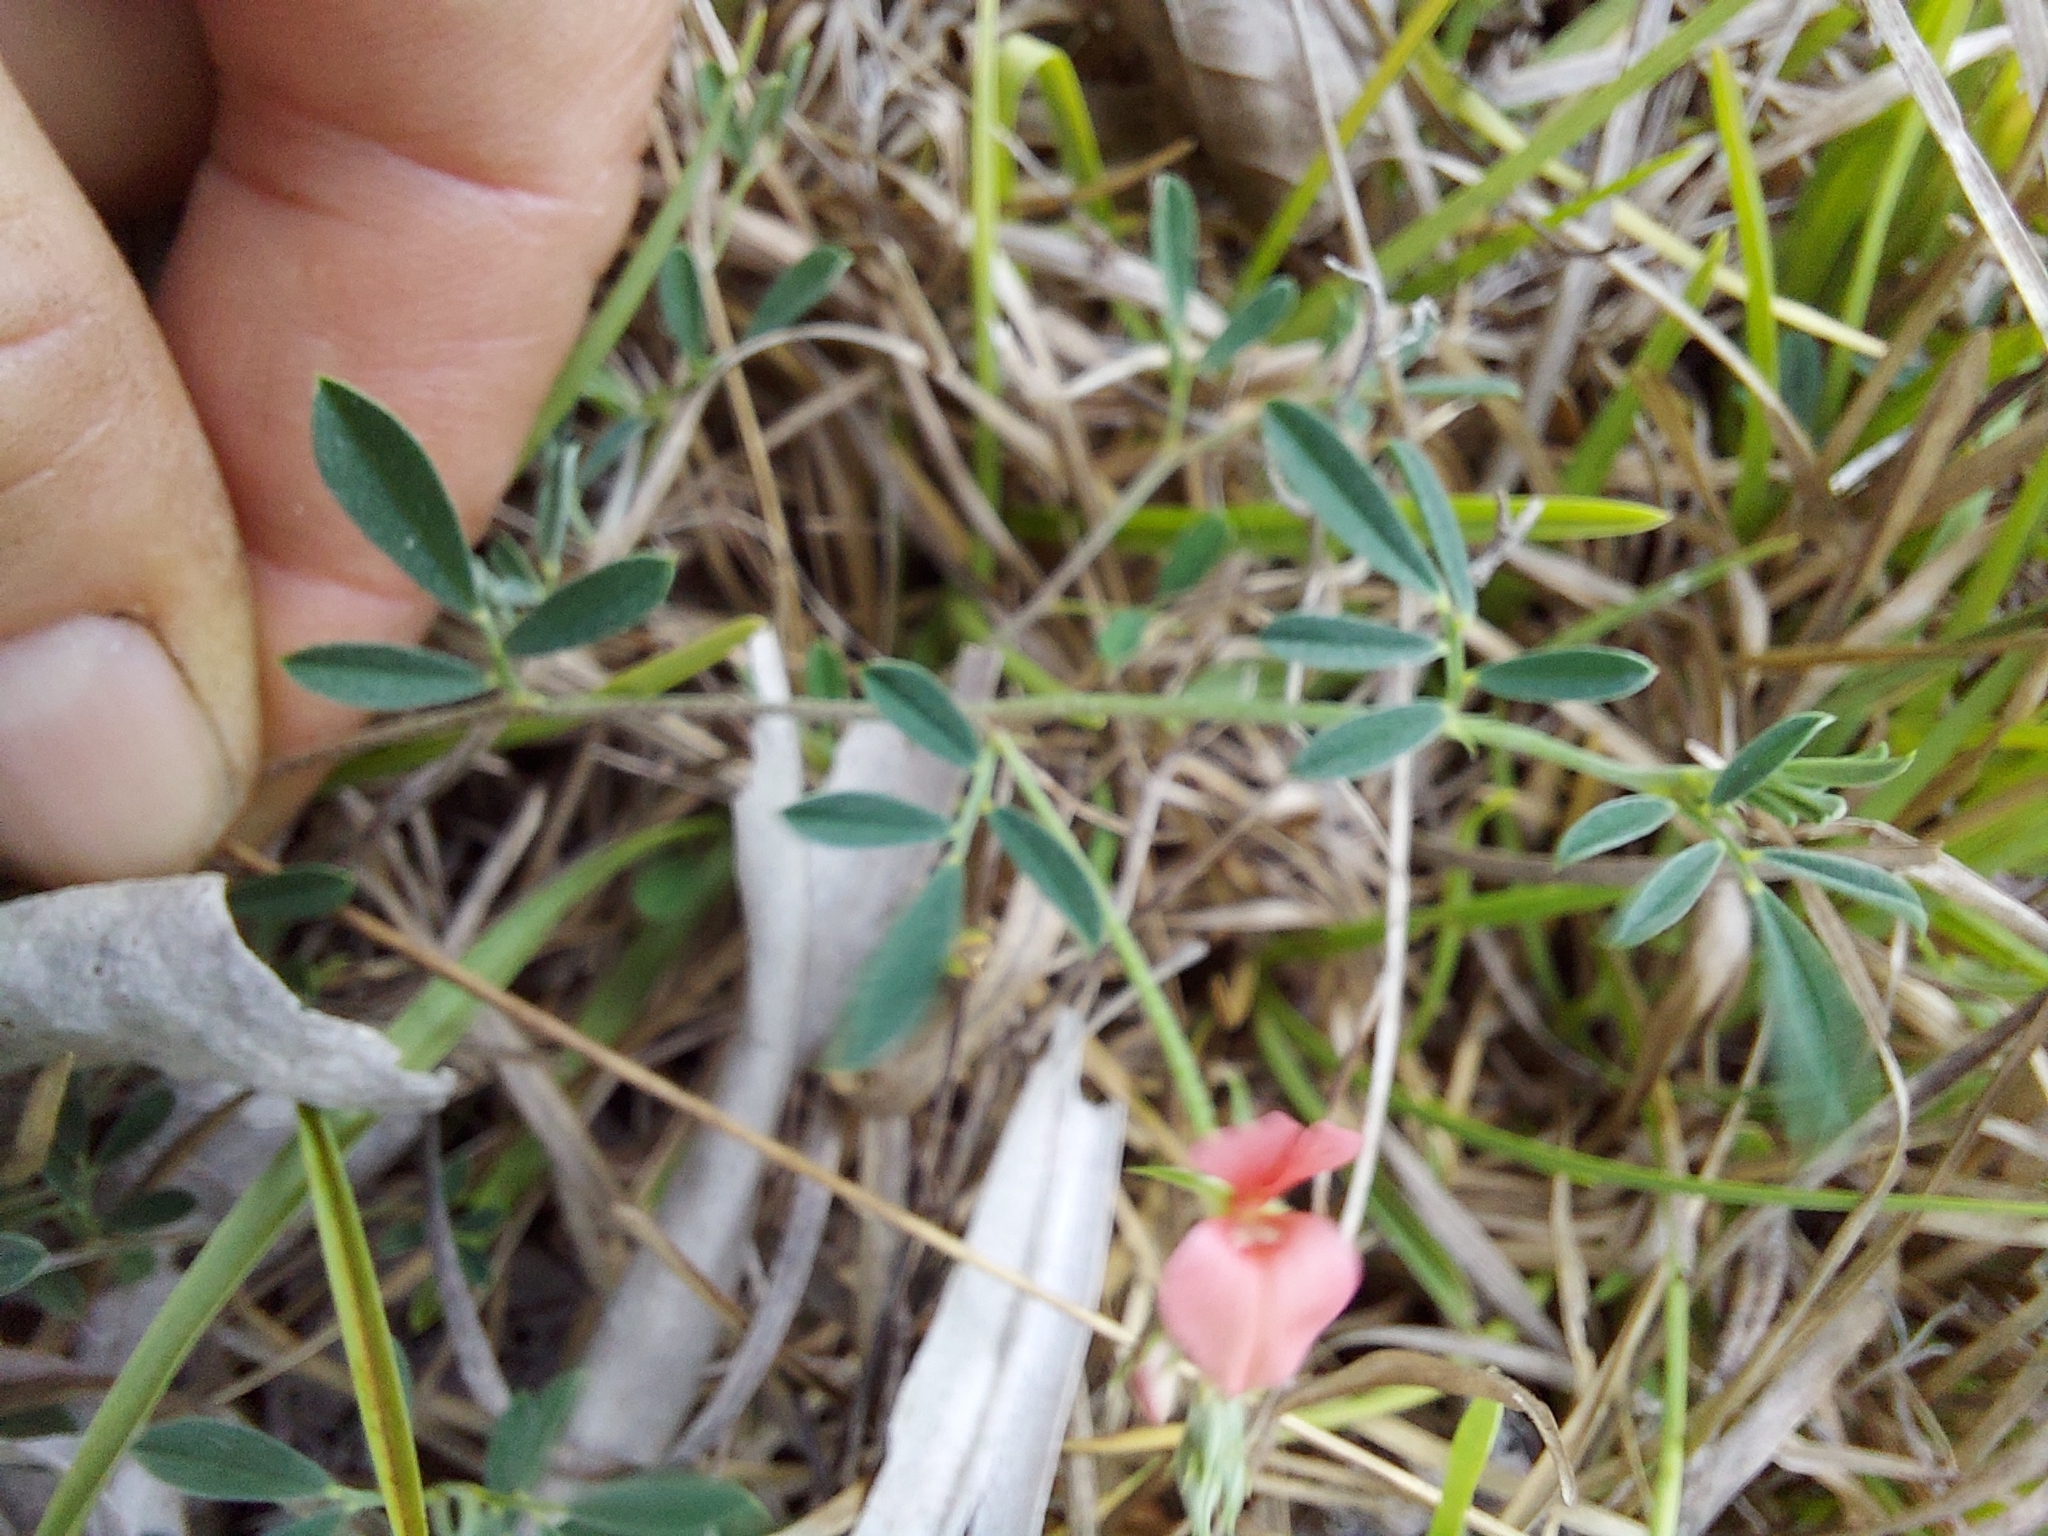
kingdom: Plantae
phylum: Tracheophyta
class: Magnoliopsida
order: Fabales
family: Fabaceae
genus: Indigofera
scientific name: Indigofera miniata
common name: Coast indigo
